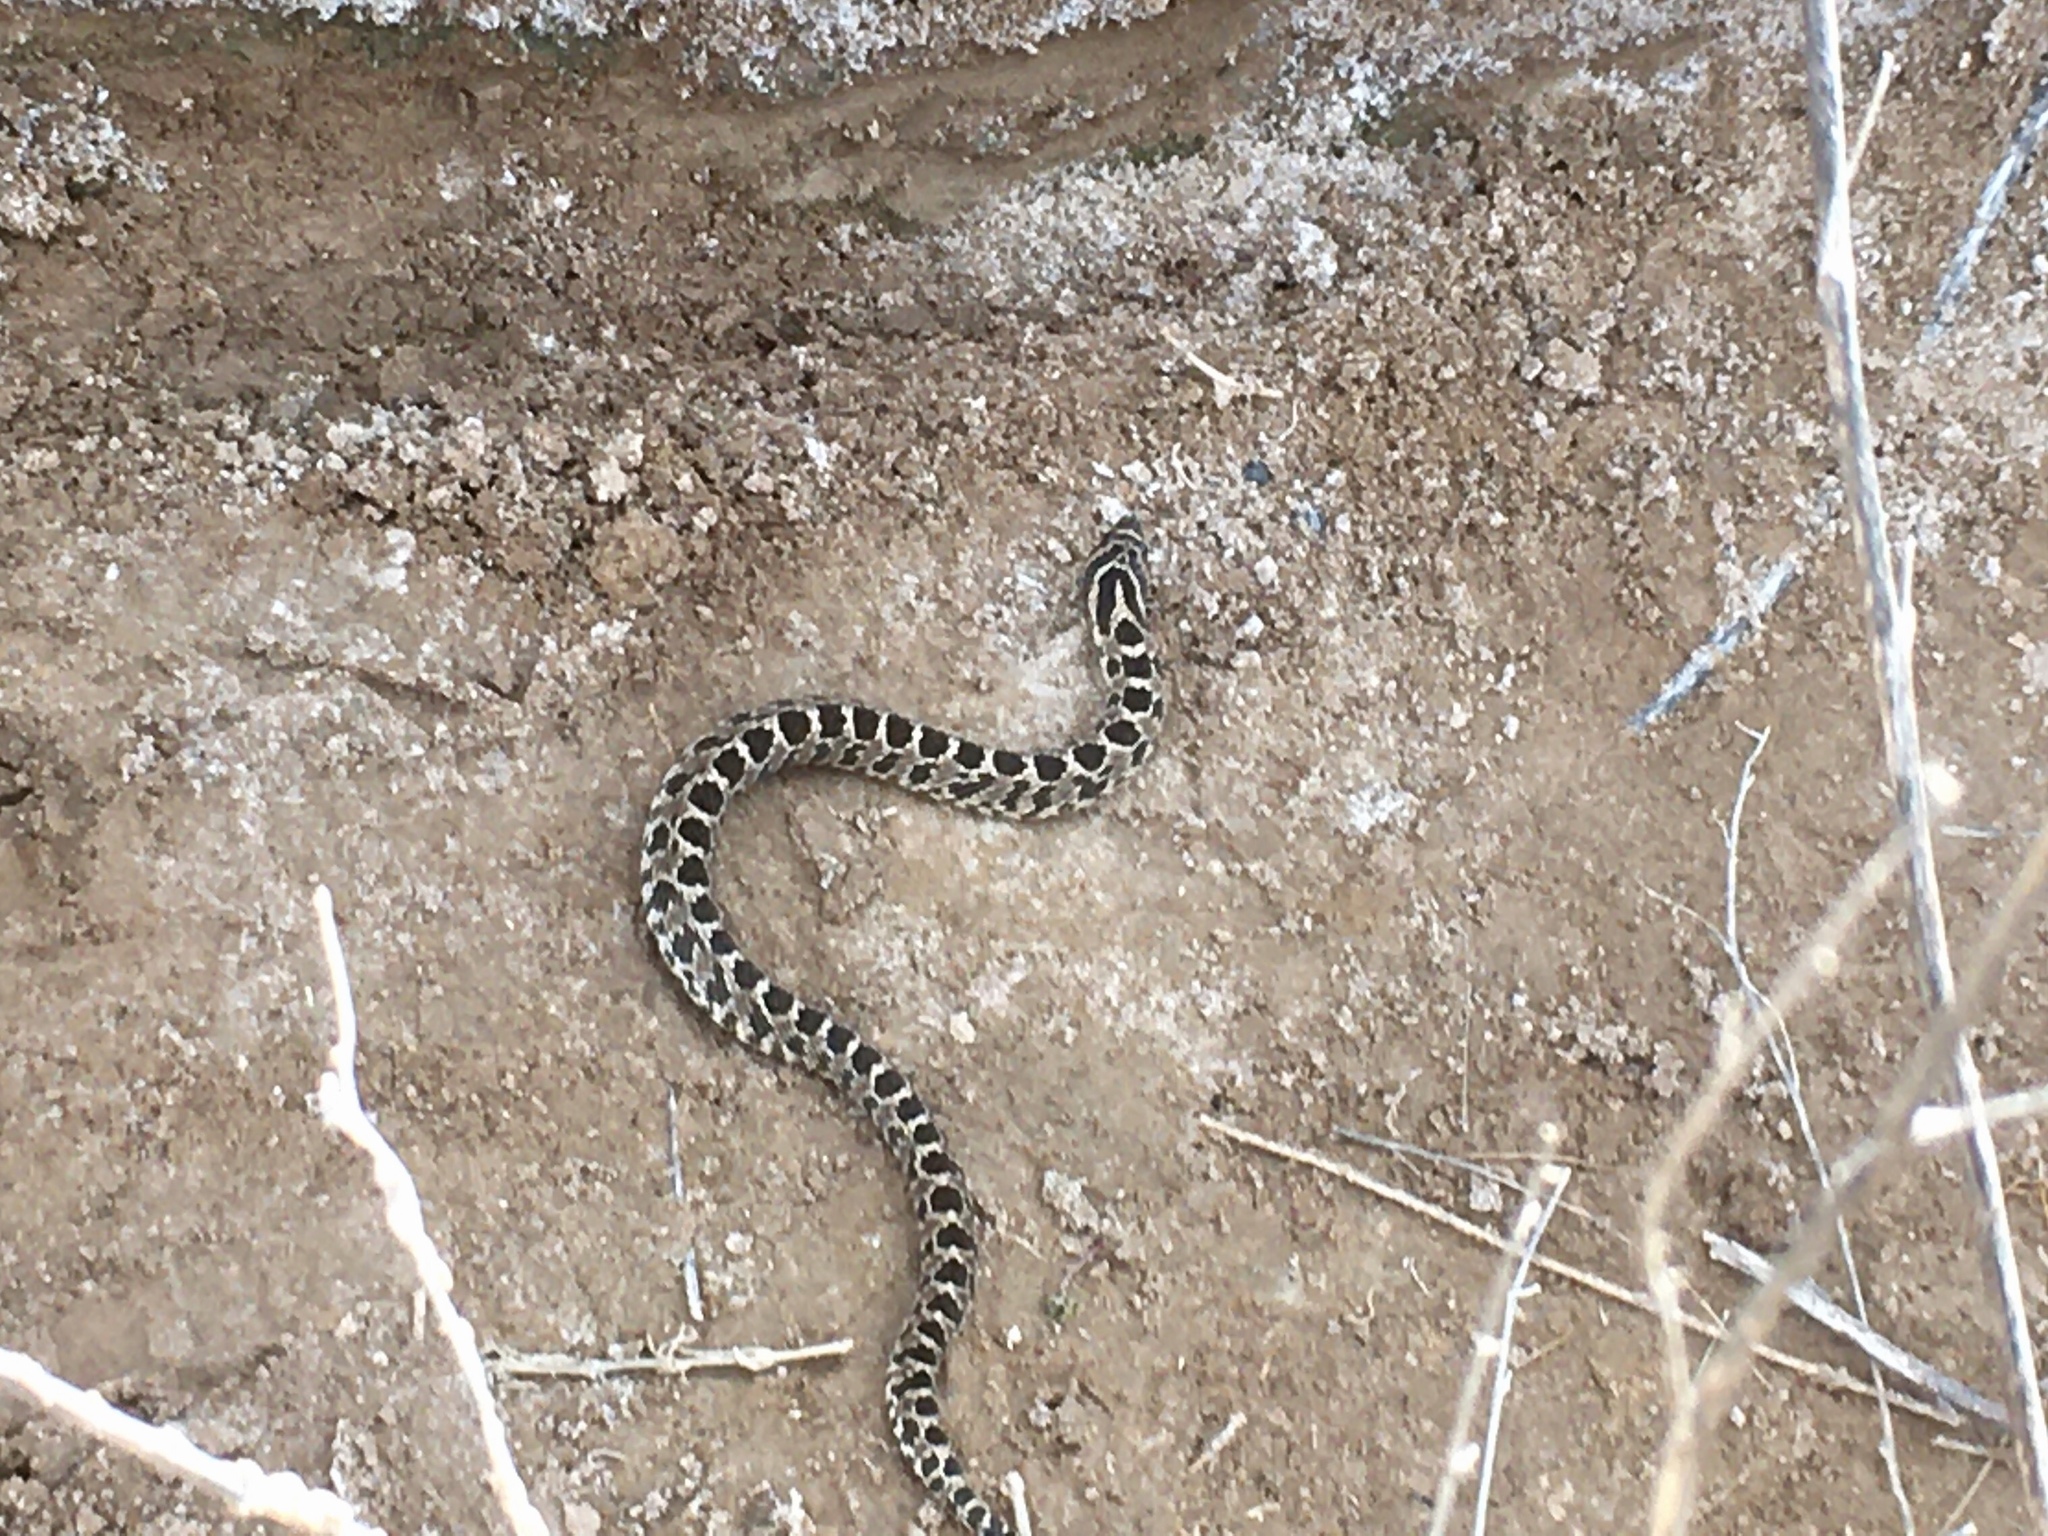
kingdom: Animalia
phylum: Chordata
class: Squamata
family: Colubridae
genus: Xenodon
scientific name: Xenodon dorbignyi
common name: South american hognose snake
